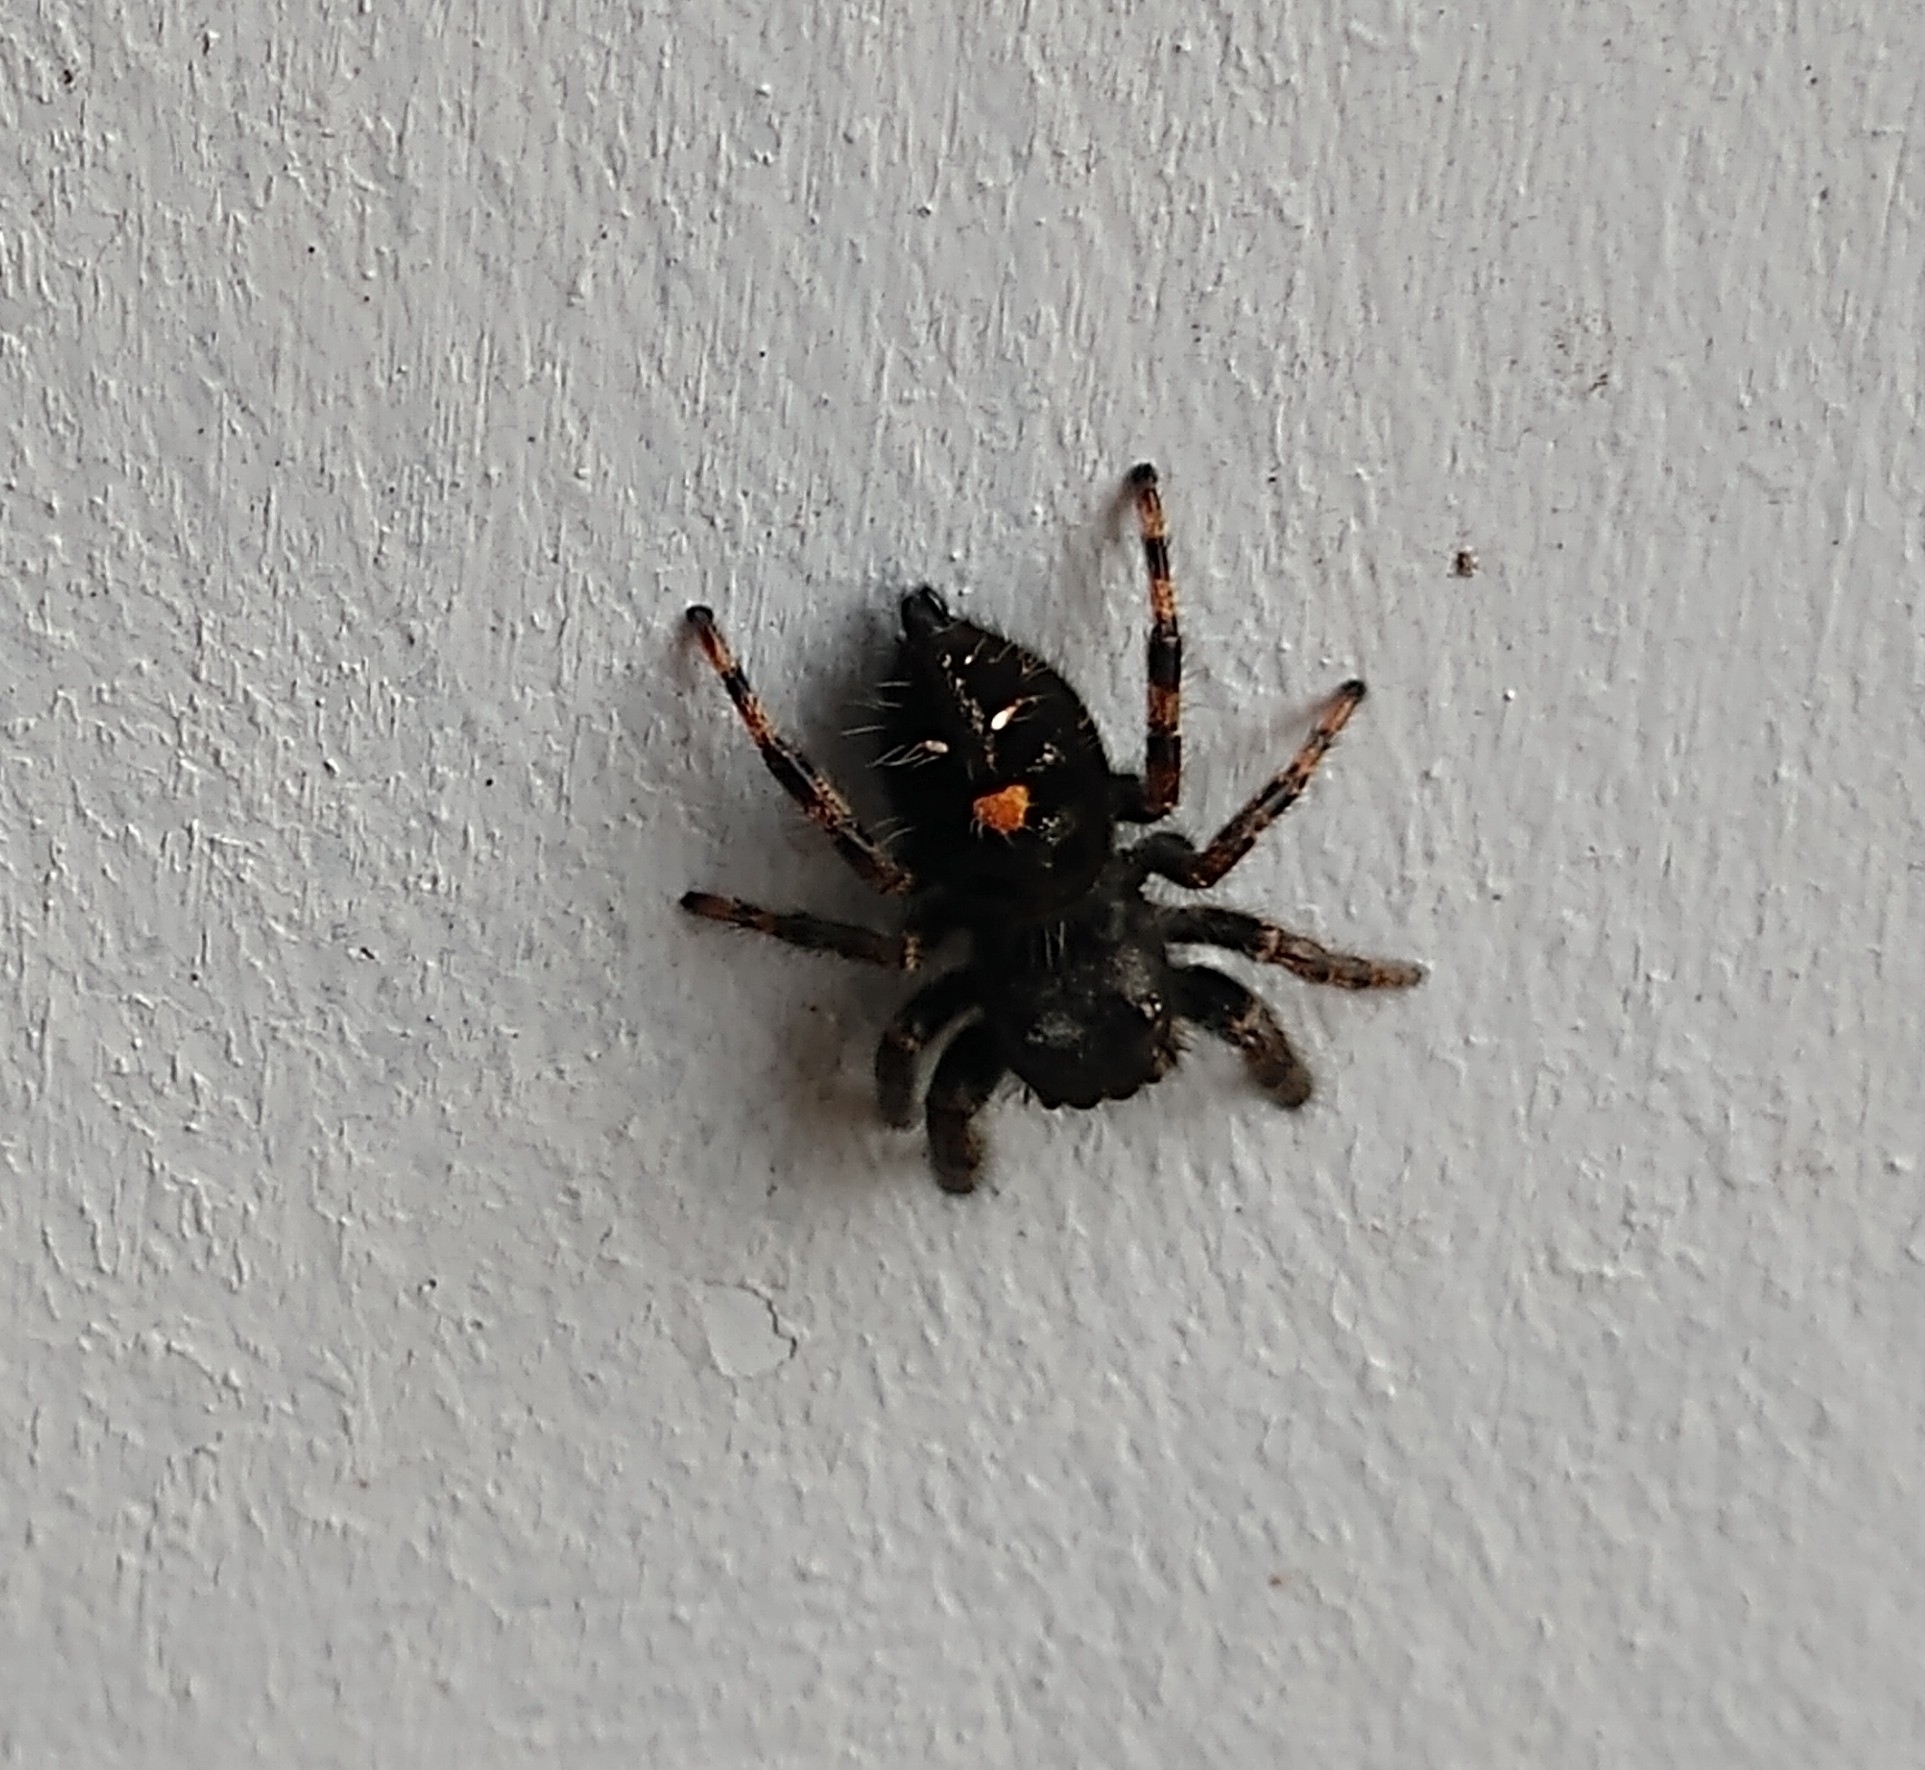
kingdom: Animalia
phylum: Arthropoda
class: Arachnida
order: Araneae
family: Salticidae
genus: Phidippus
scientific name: Phidippus audax
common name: Bold jumper
